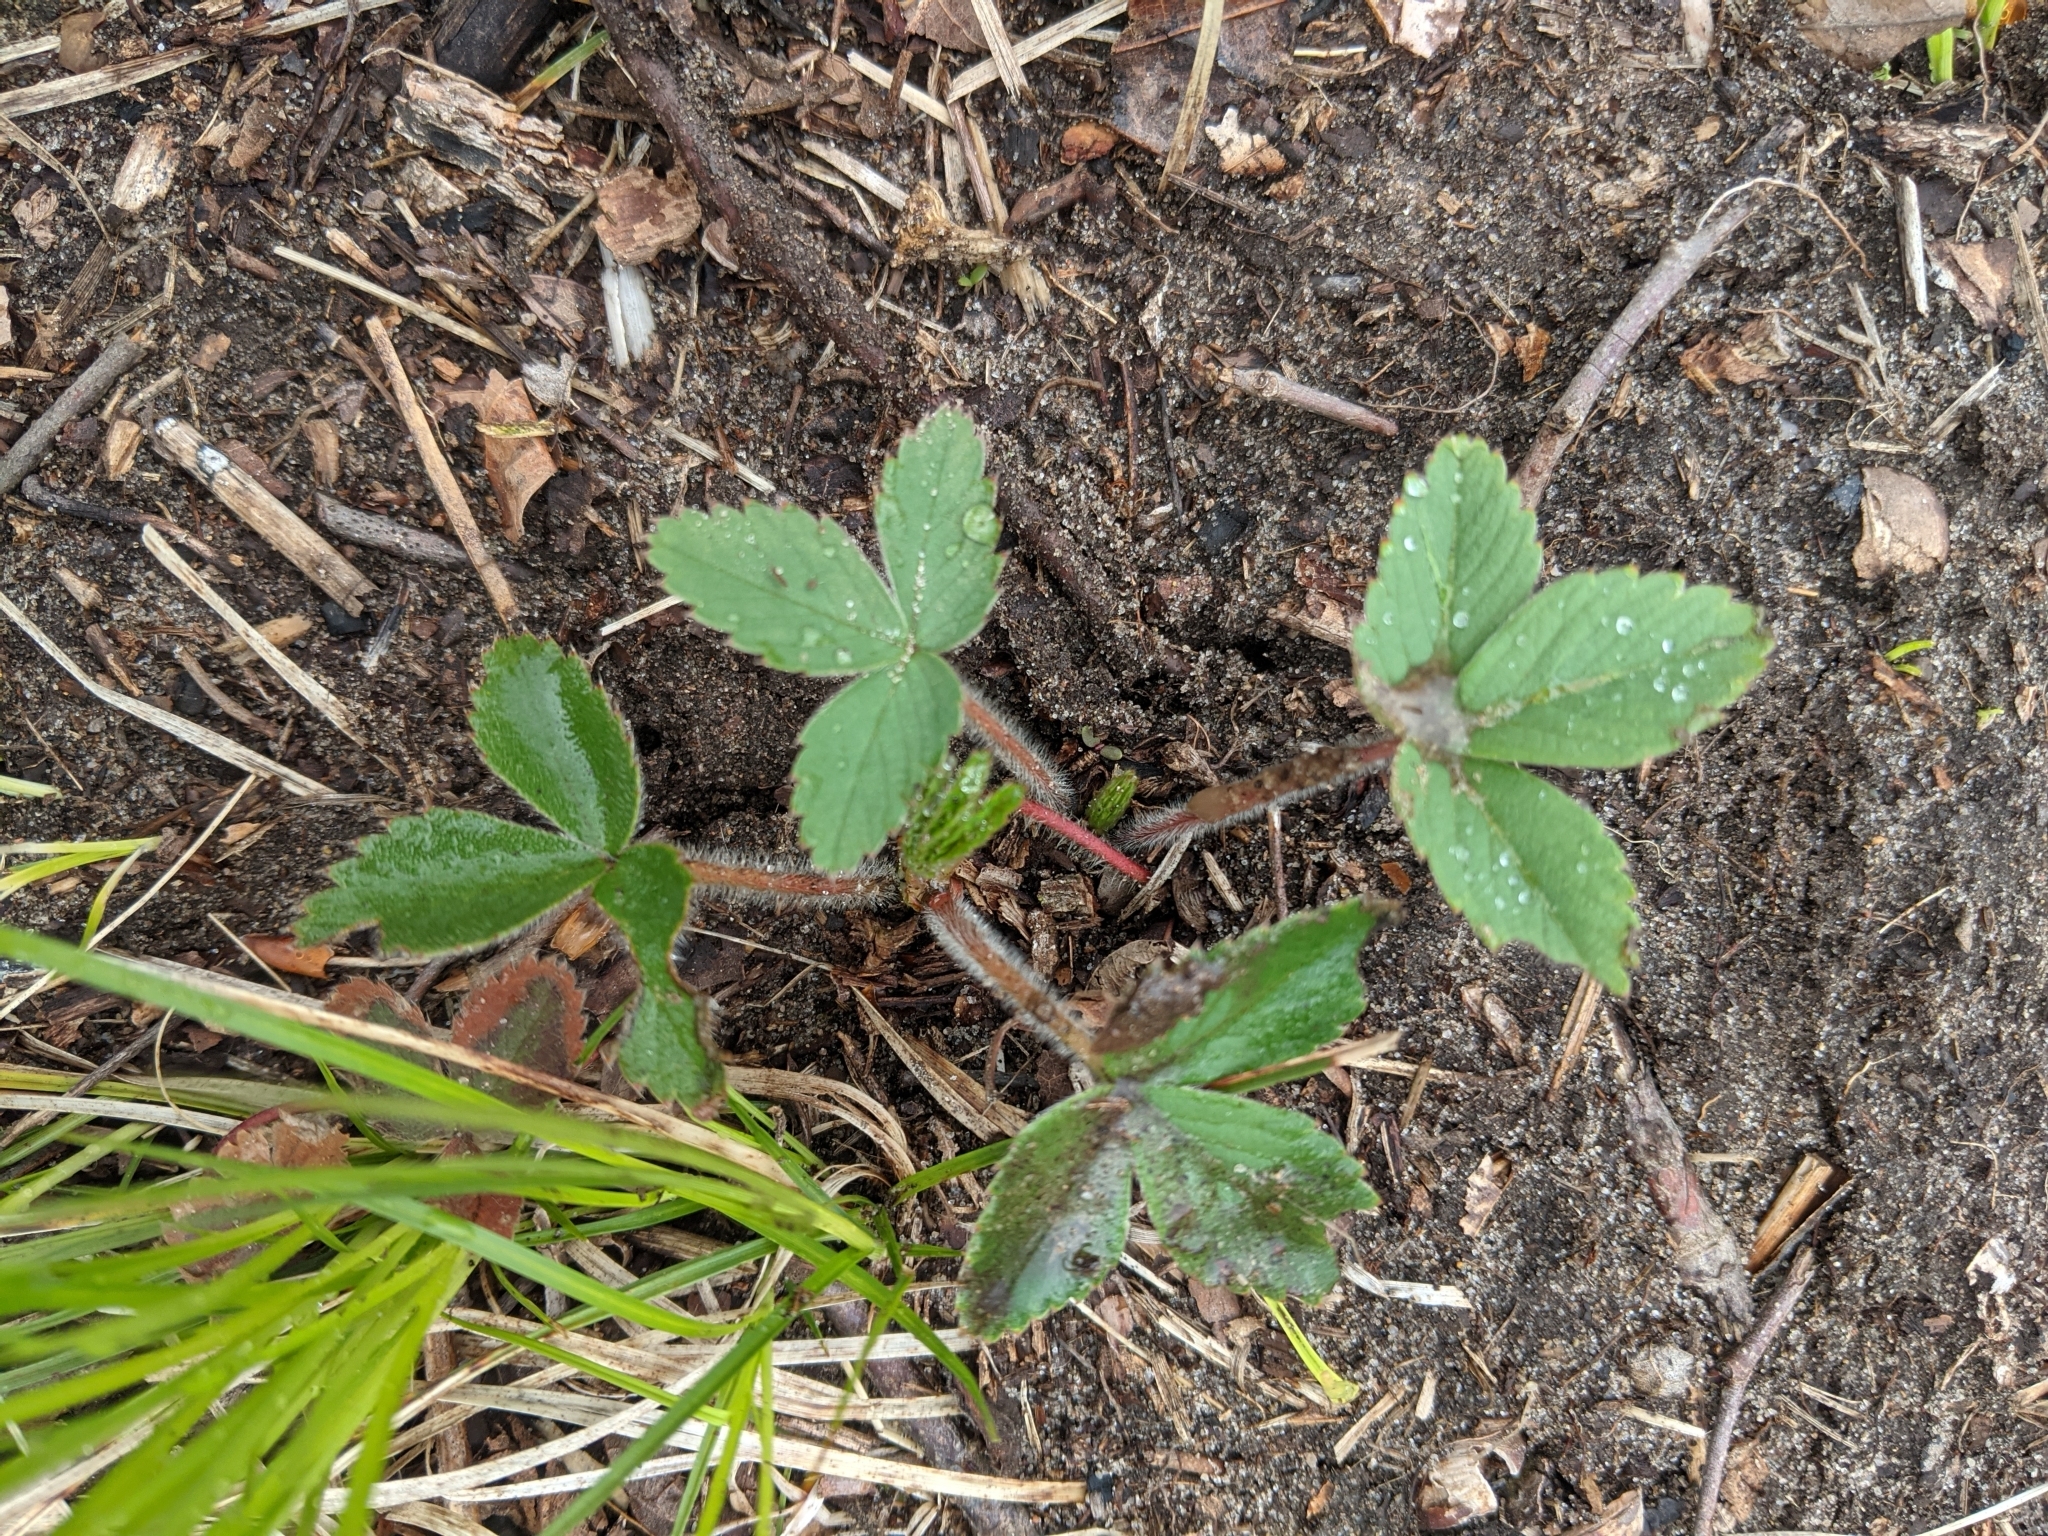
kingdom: Plantae
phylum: Tracheophyta
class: Magnoliopsida
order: Rosales
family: Rosaceae
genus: Fragaria
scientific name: Fragaria virginiana
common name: Thickleaved wild strawberry
